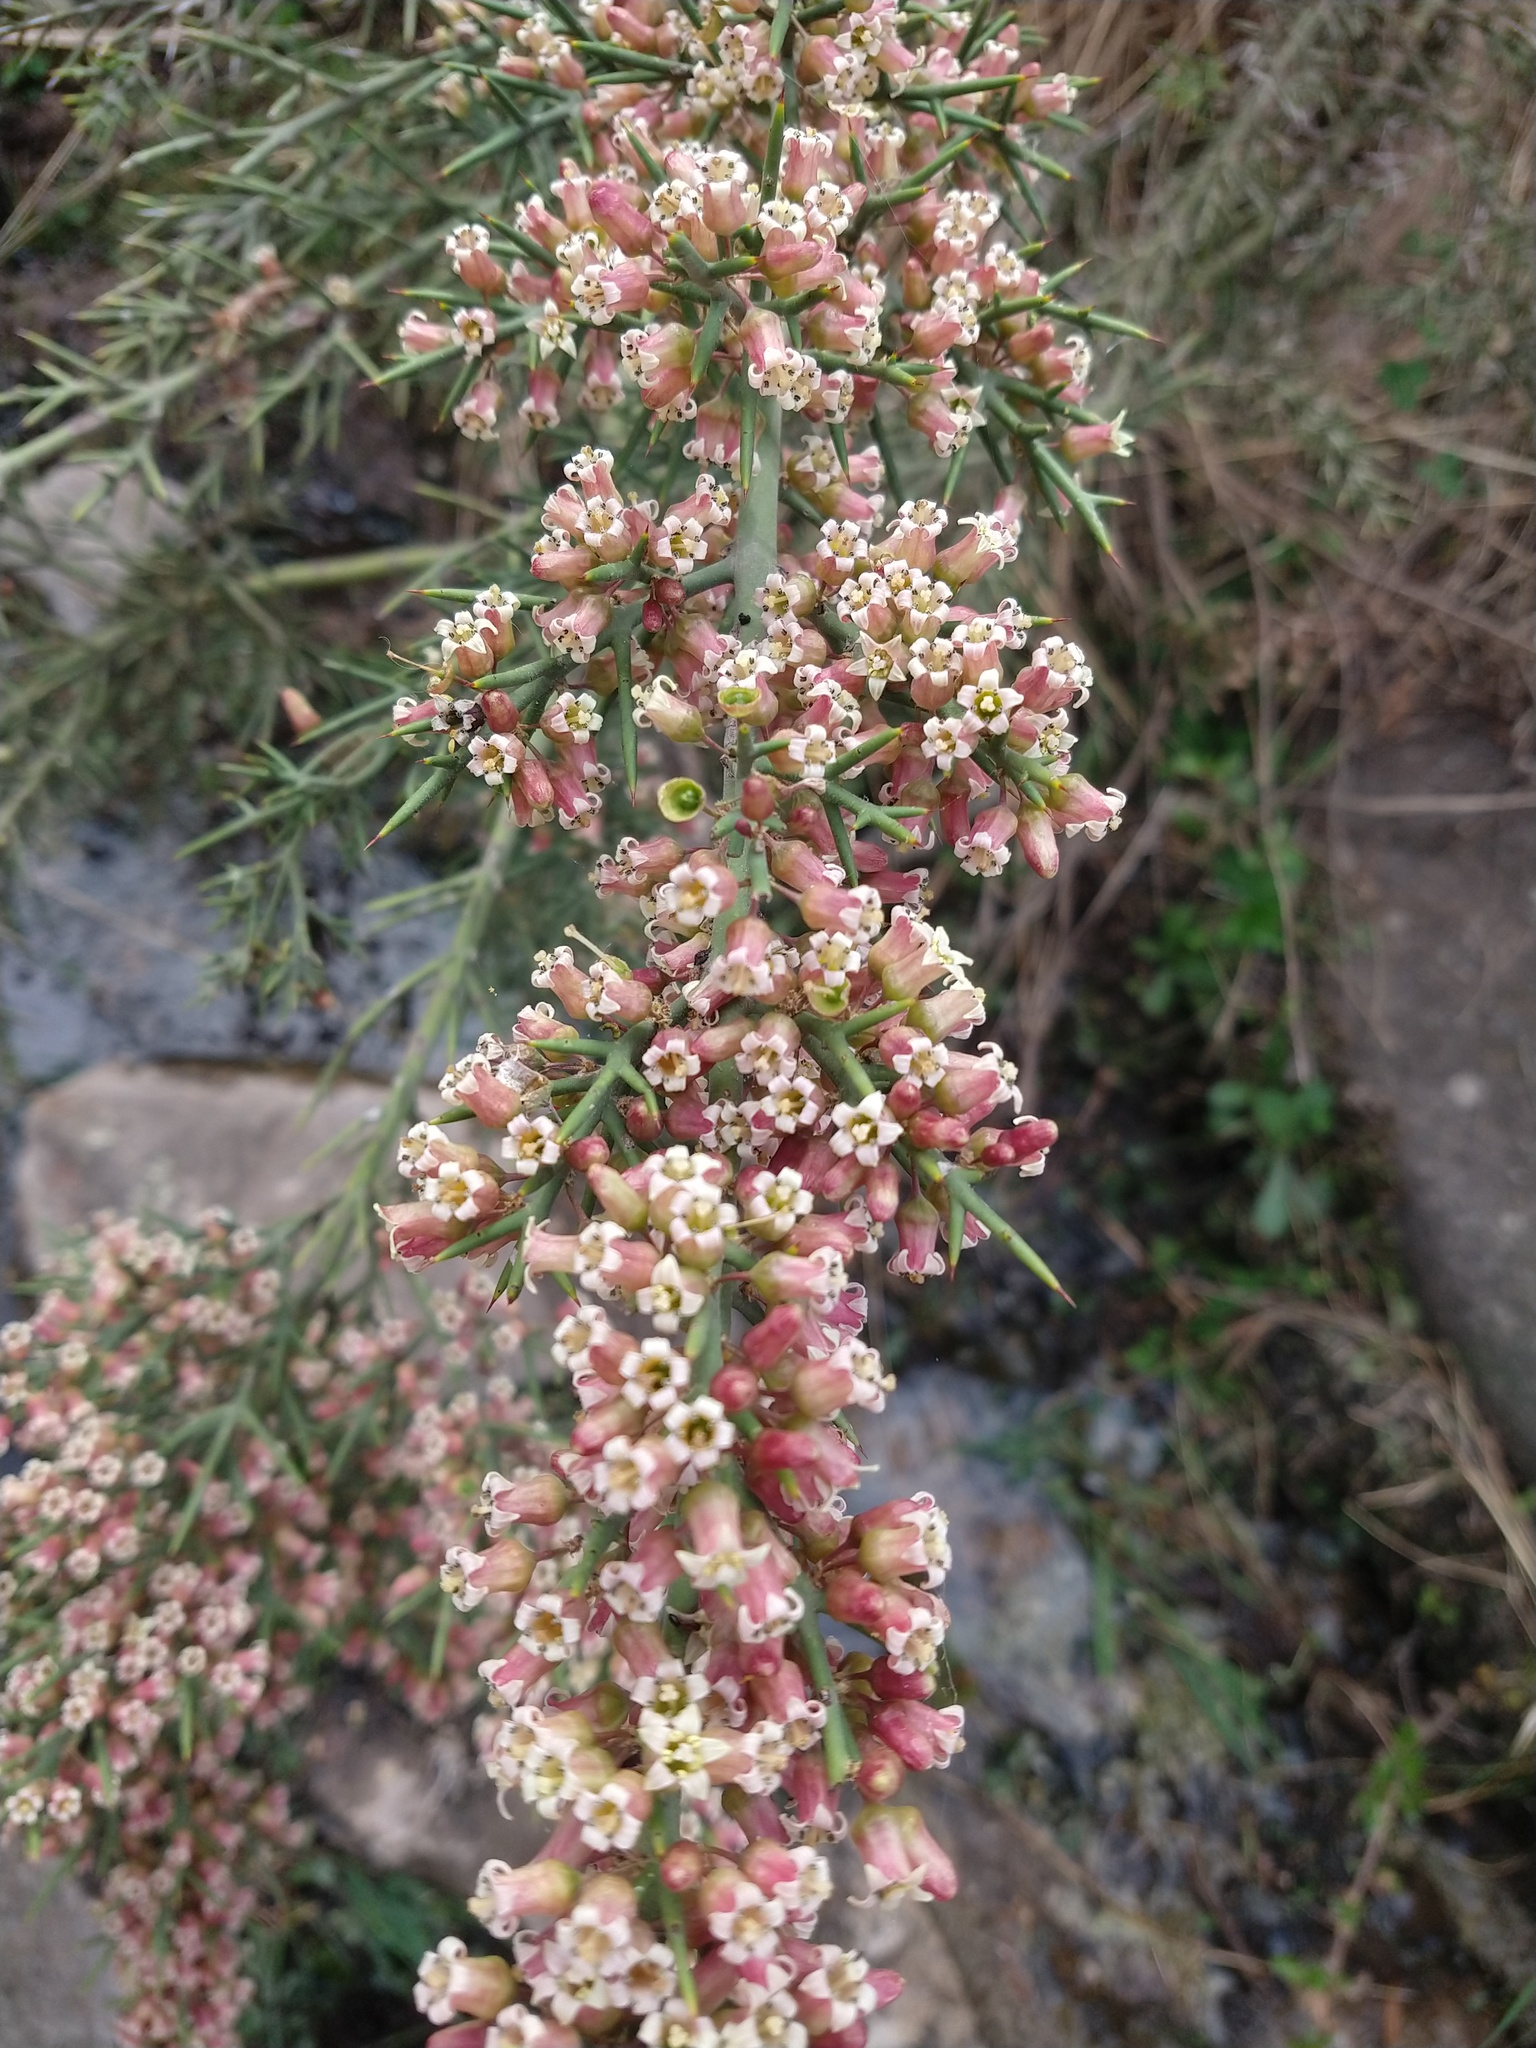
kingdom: Plantae
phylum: Tracheophyta
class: Magnoliopsida
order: Rosales
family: Rhamnaceae
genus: Colletia
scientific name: Colletia spinosissima
